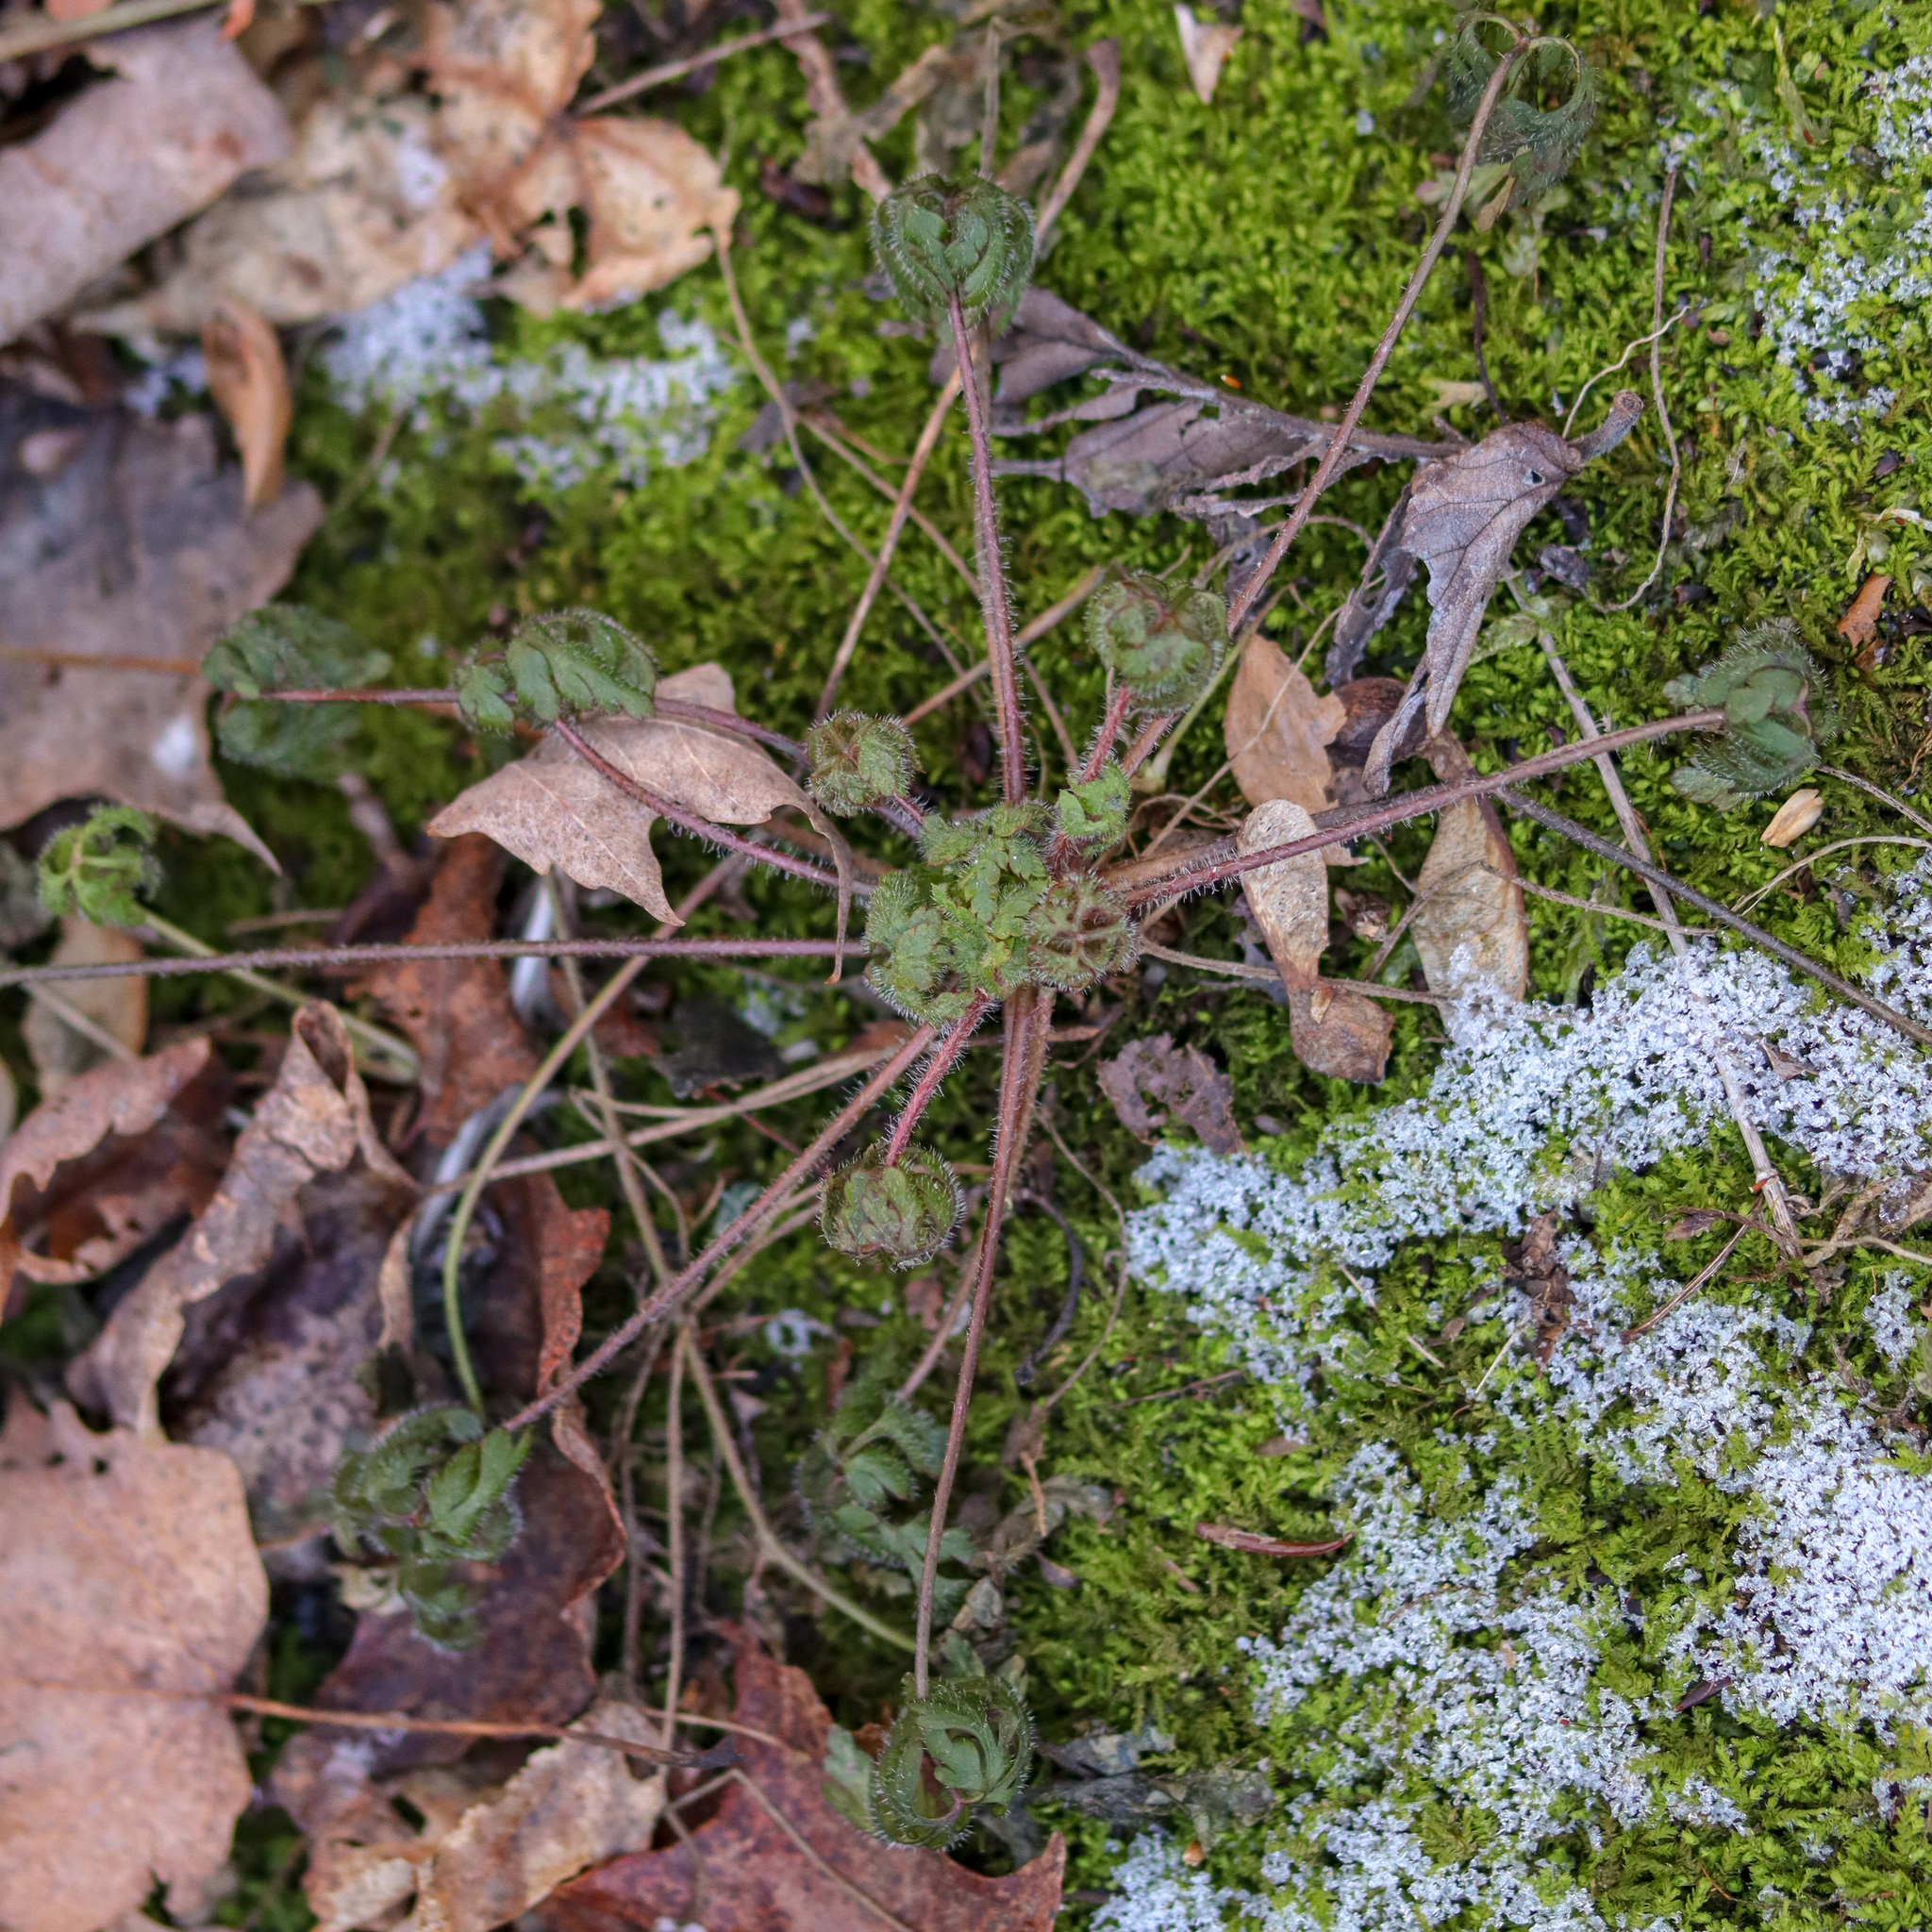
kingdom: Plantae
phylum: Tracheophyta
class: Magnoliopsida
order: Geraniales
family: Geraniaceae
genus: Geranium
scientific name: Geranium robertianum
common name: Herb-robert
